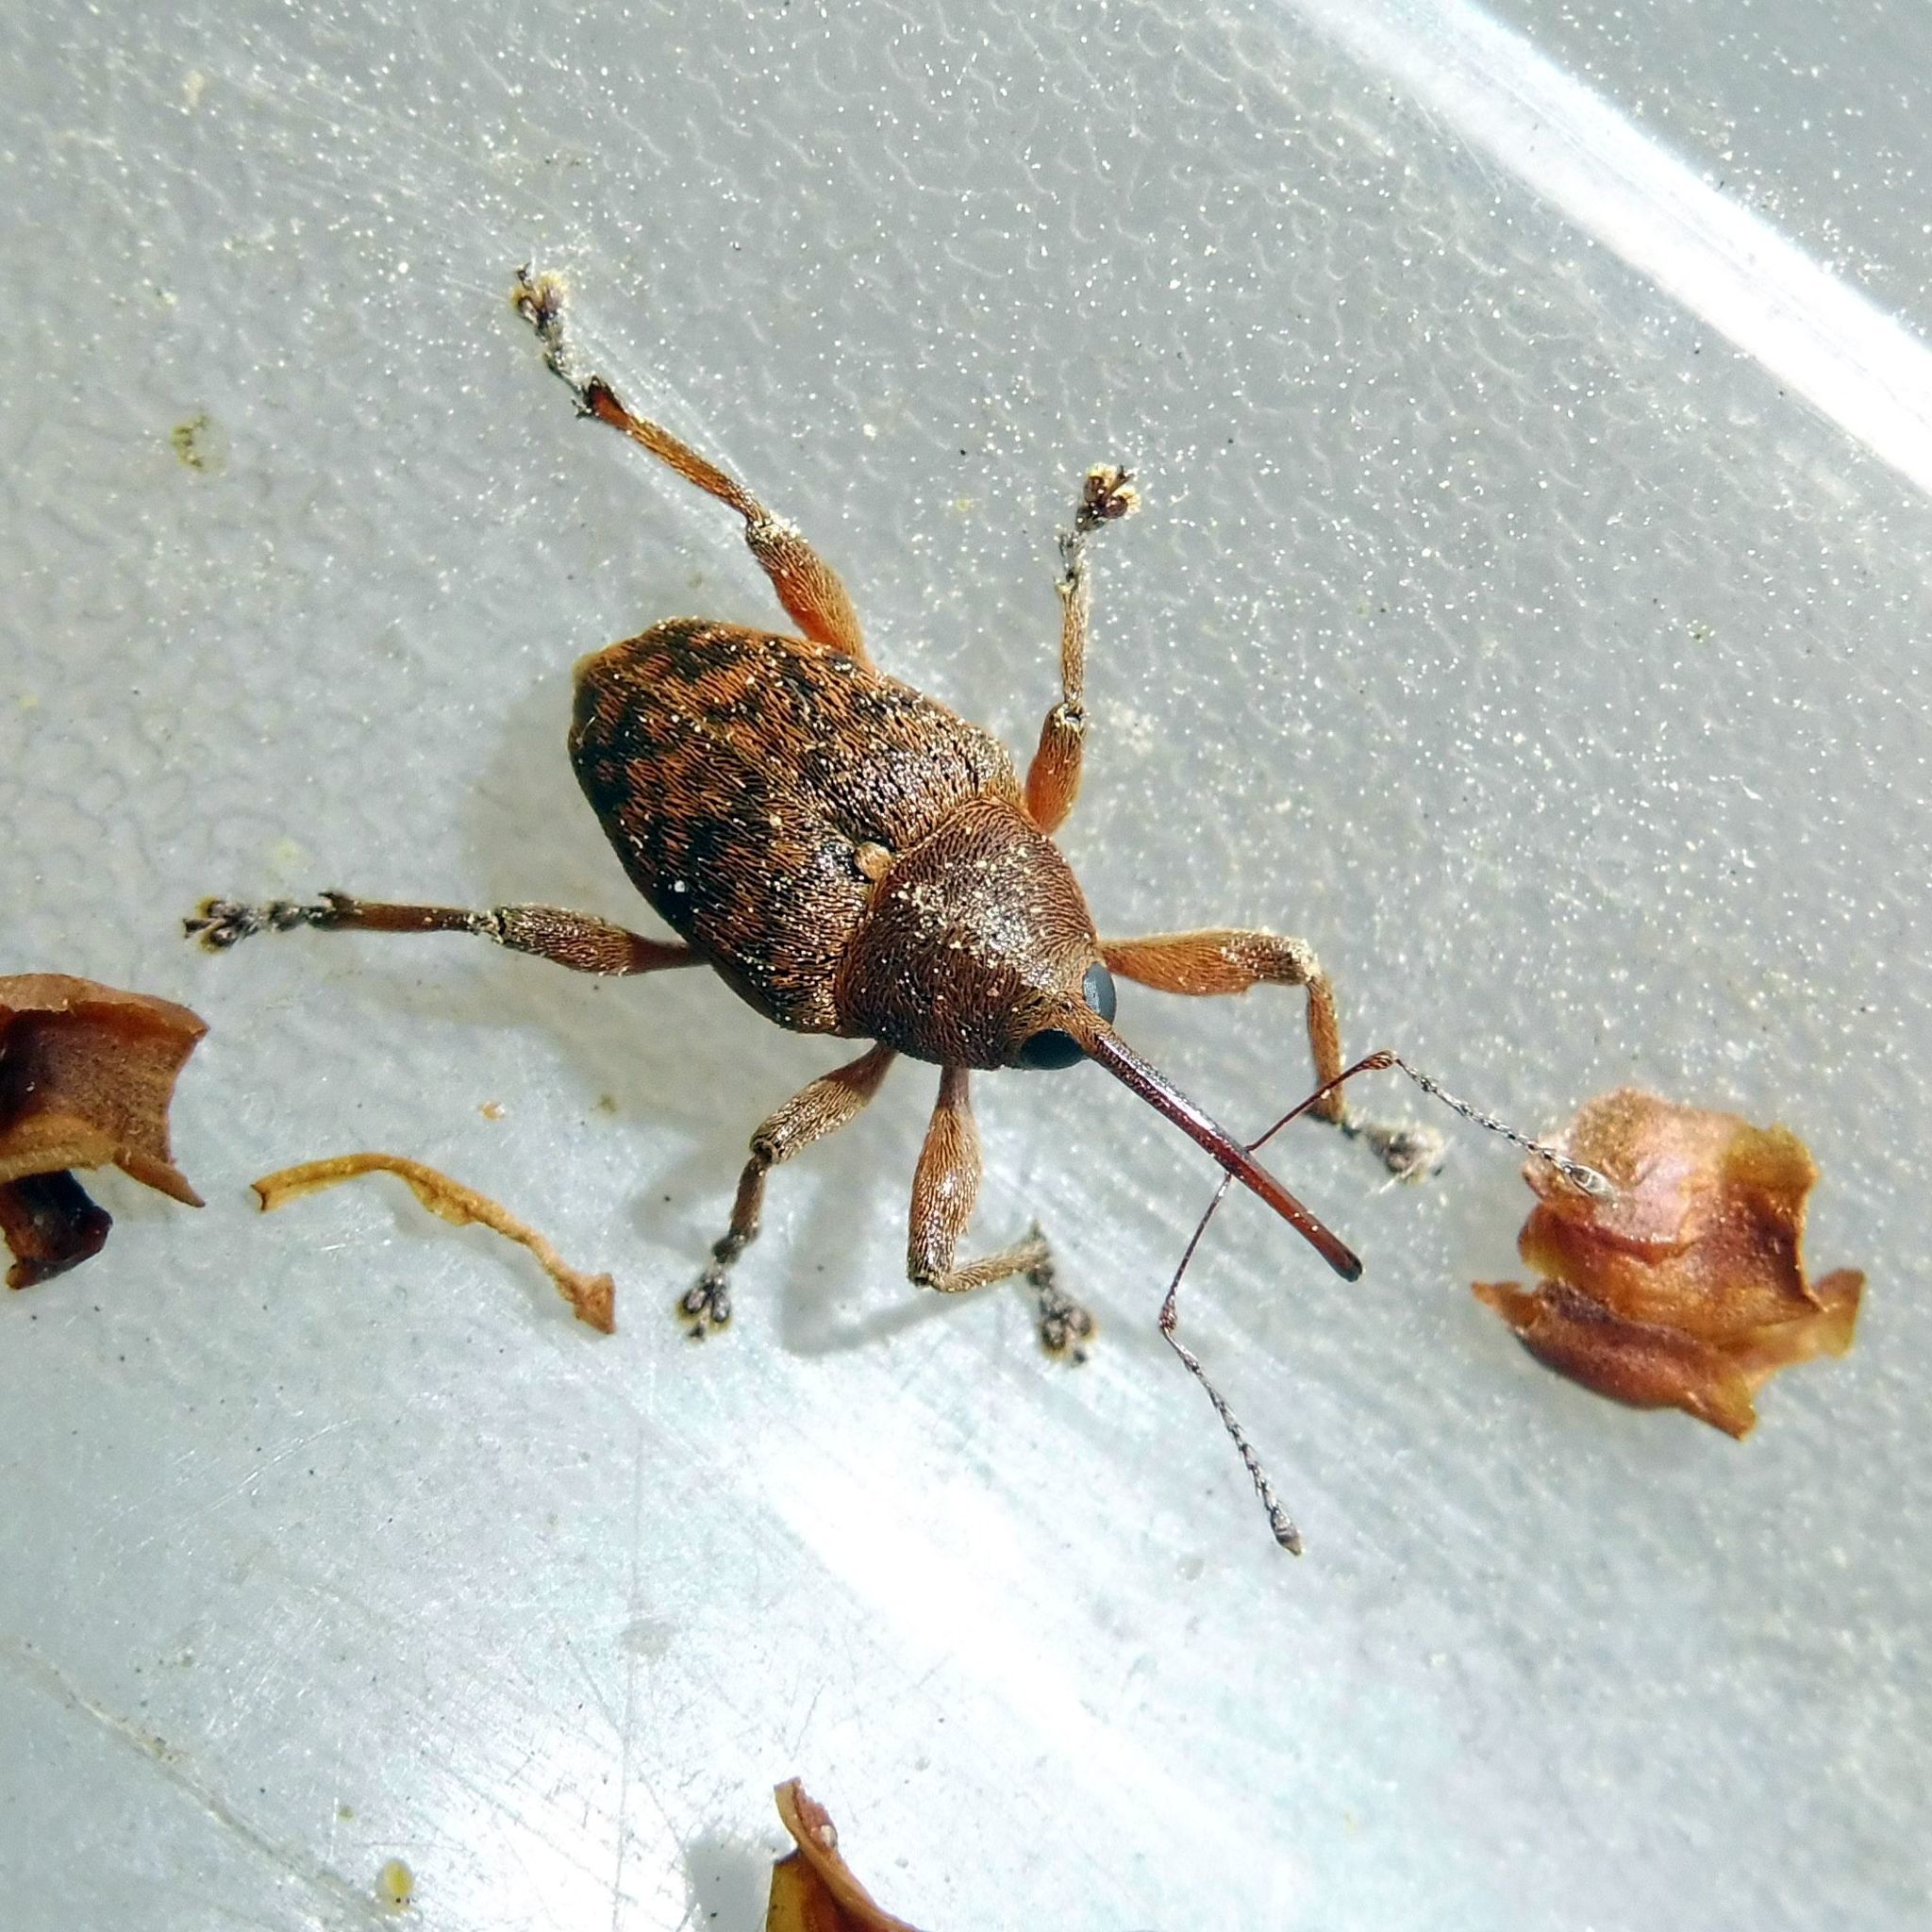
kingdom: Animalia
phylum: Arthropoda
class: Insecta
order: Coleoptera
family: Curculionidae
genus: Curculio
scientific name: Curculio glandium
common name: Acorn weevil
